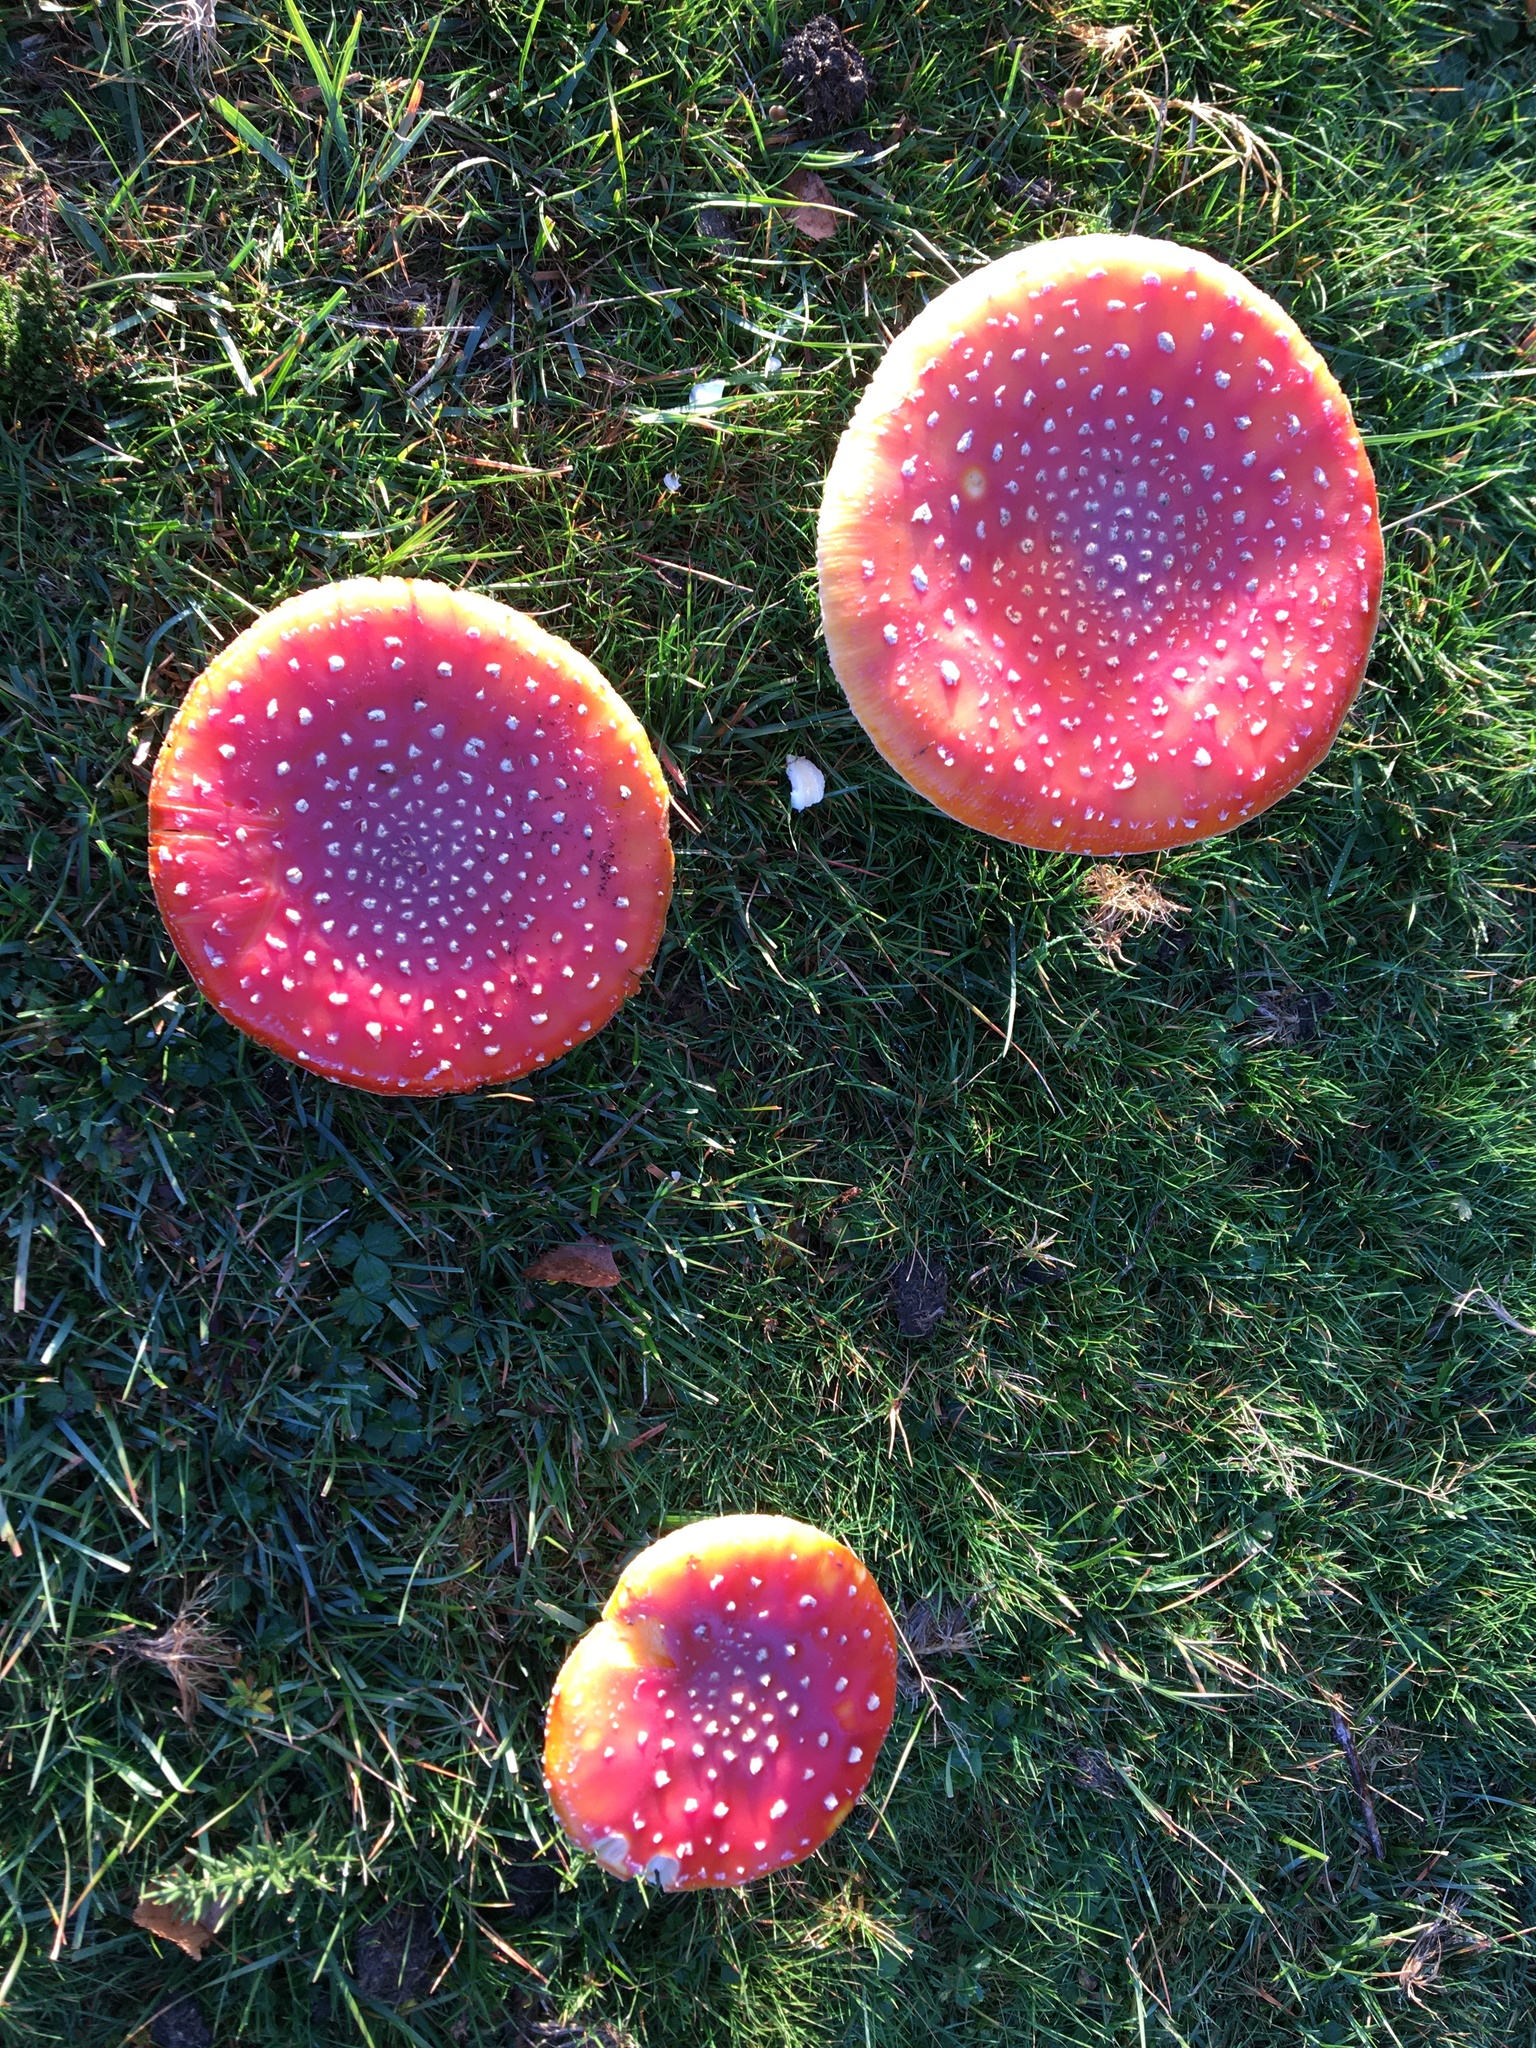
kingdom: Fungi
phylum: Basidiomycota
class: Agaricomycetes
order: Agaricales
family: Amanitaceae
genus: Amanita
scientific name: Amanita muscaria
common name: Fly agaric
